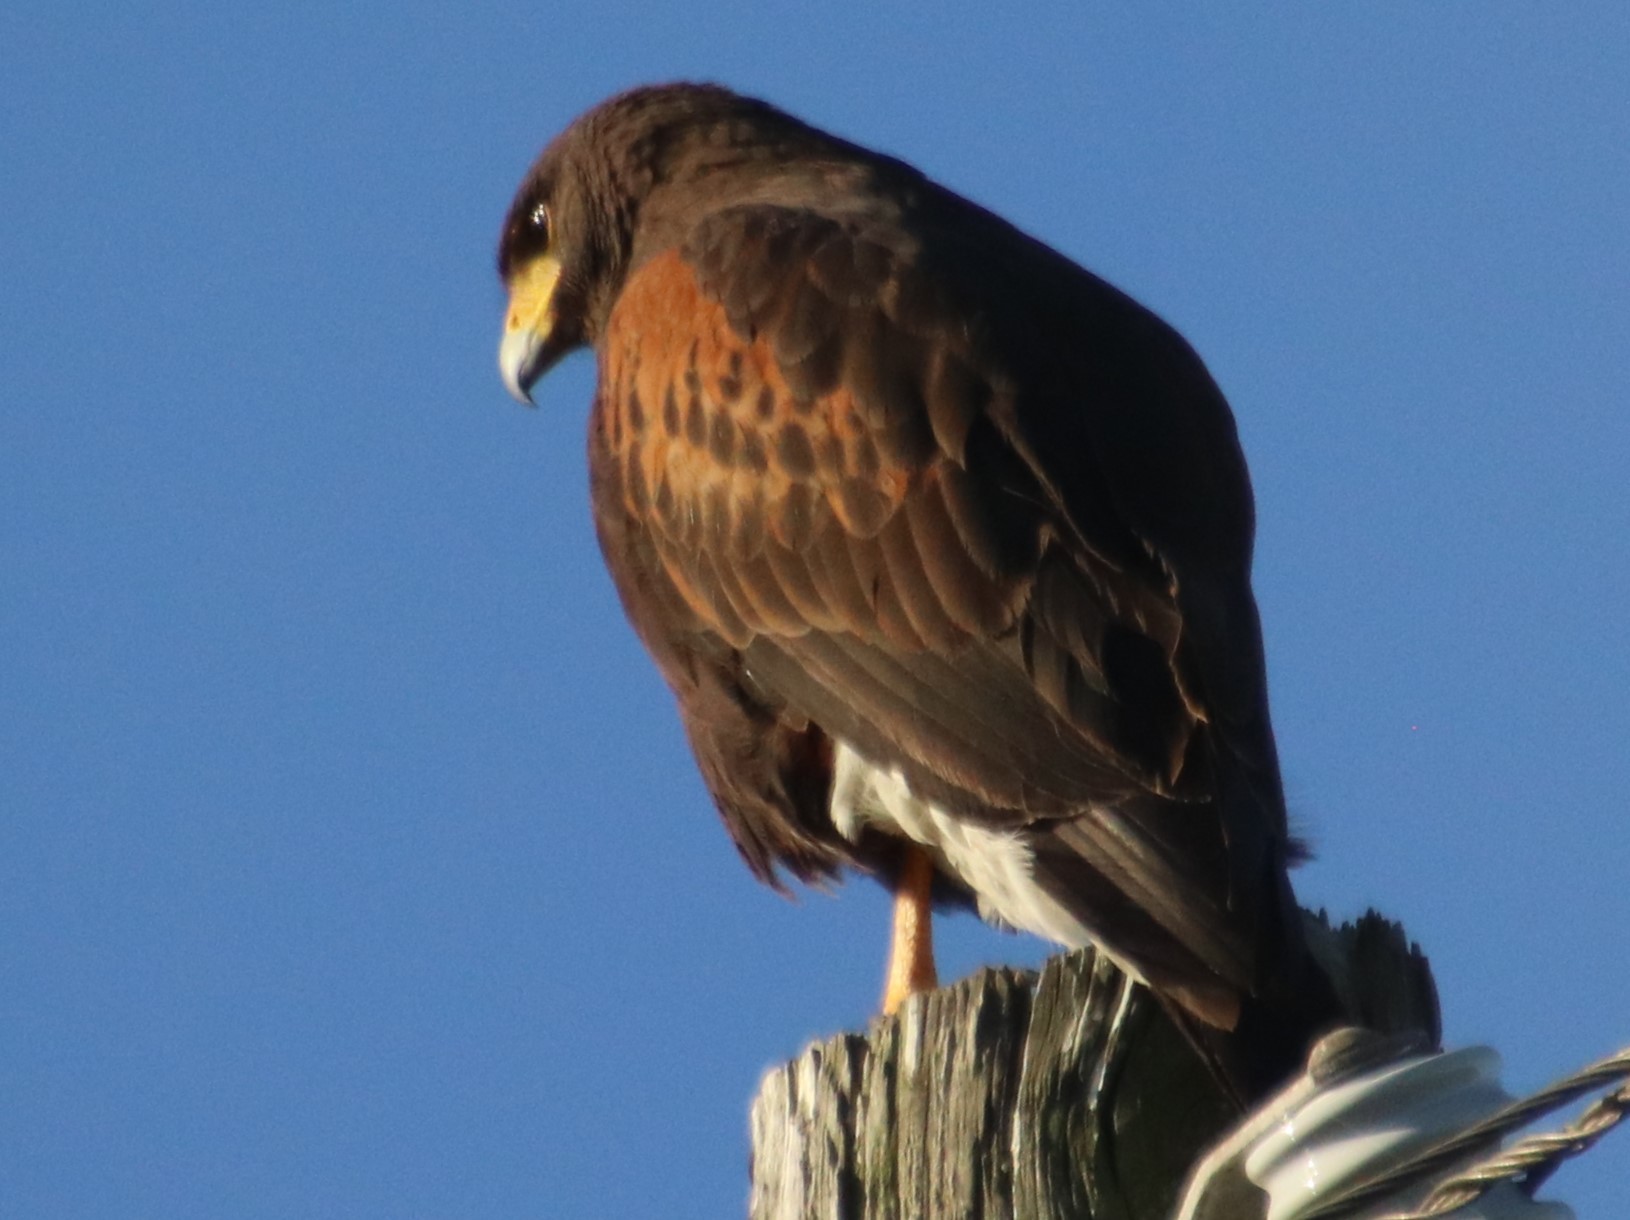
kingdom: Animalia
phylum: Chordata
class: Aves
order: Accipitriformes
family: Accipitridae
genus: Parabuteo
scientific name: Parabuteo unicinctus
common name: Harris's hawk
